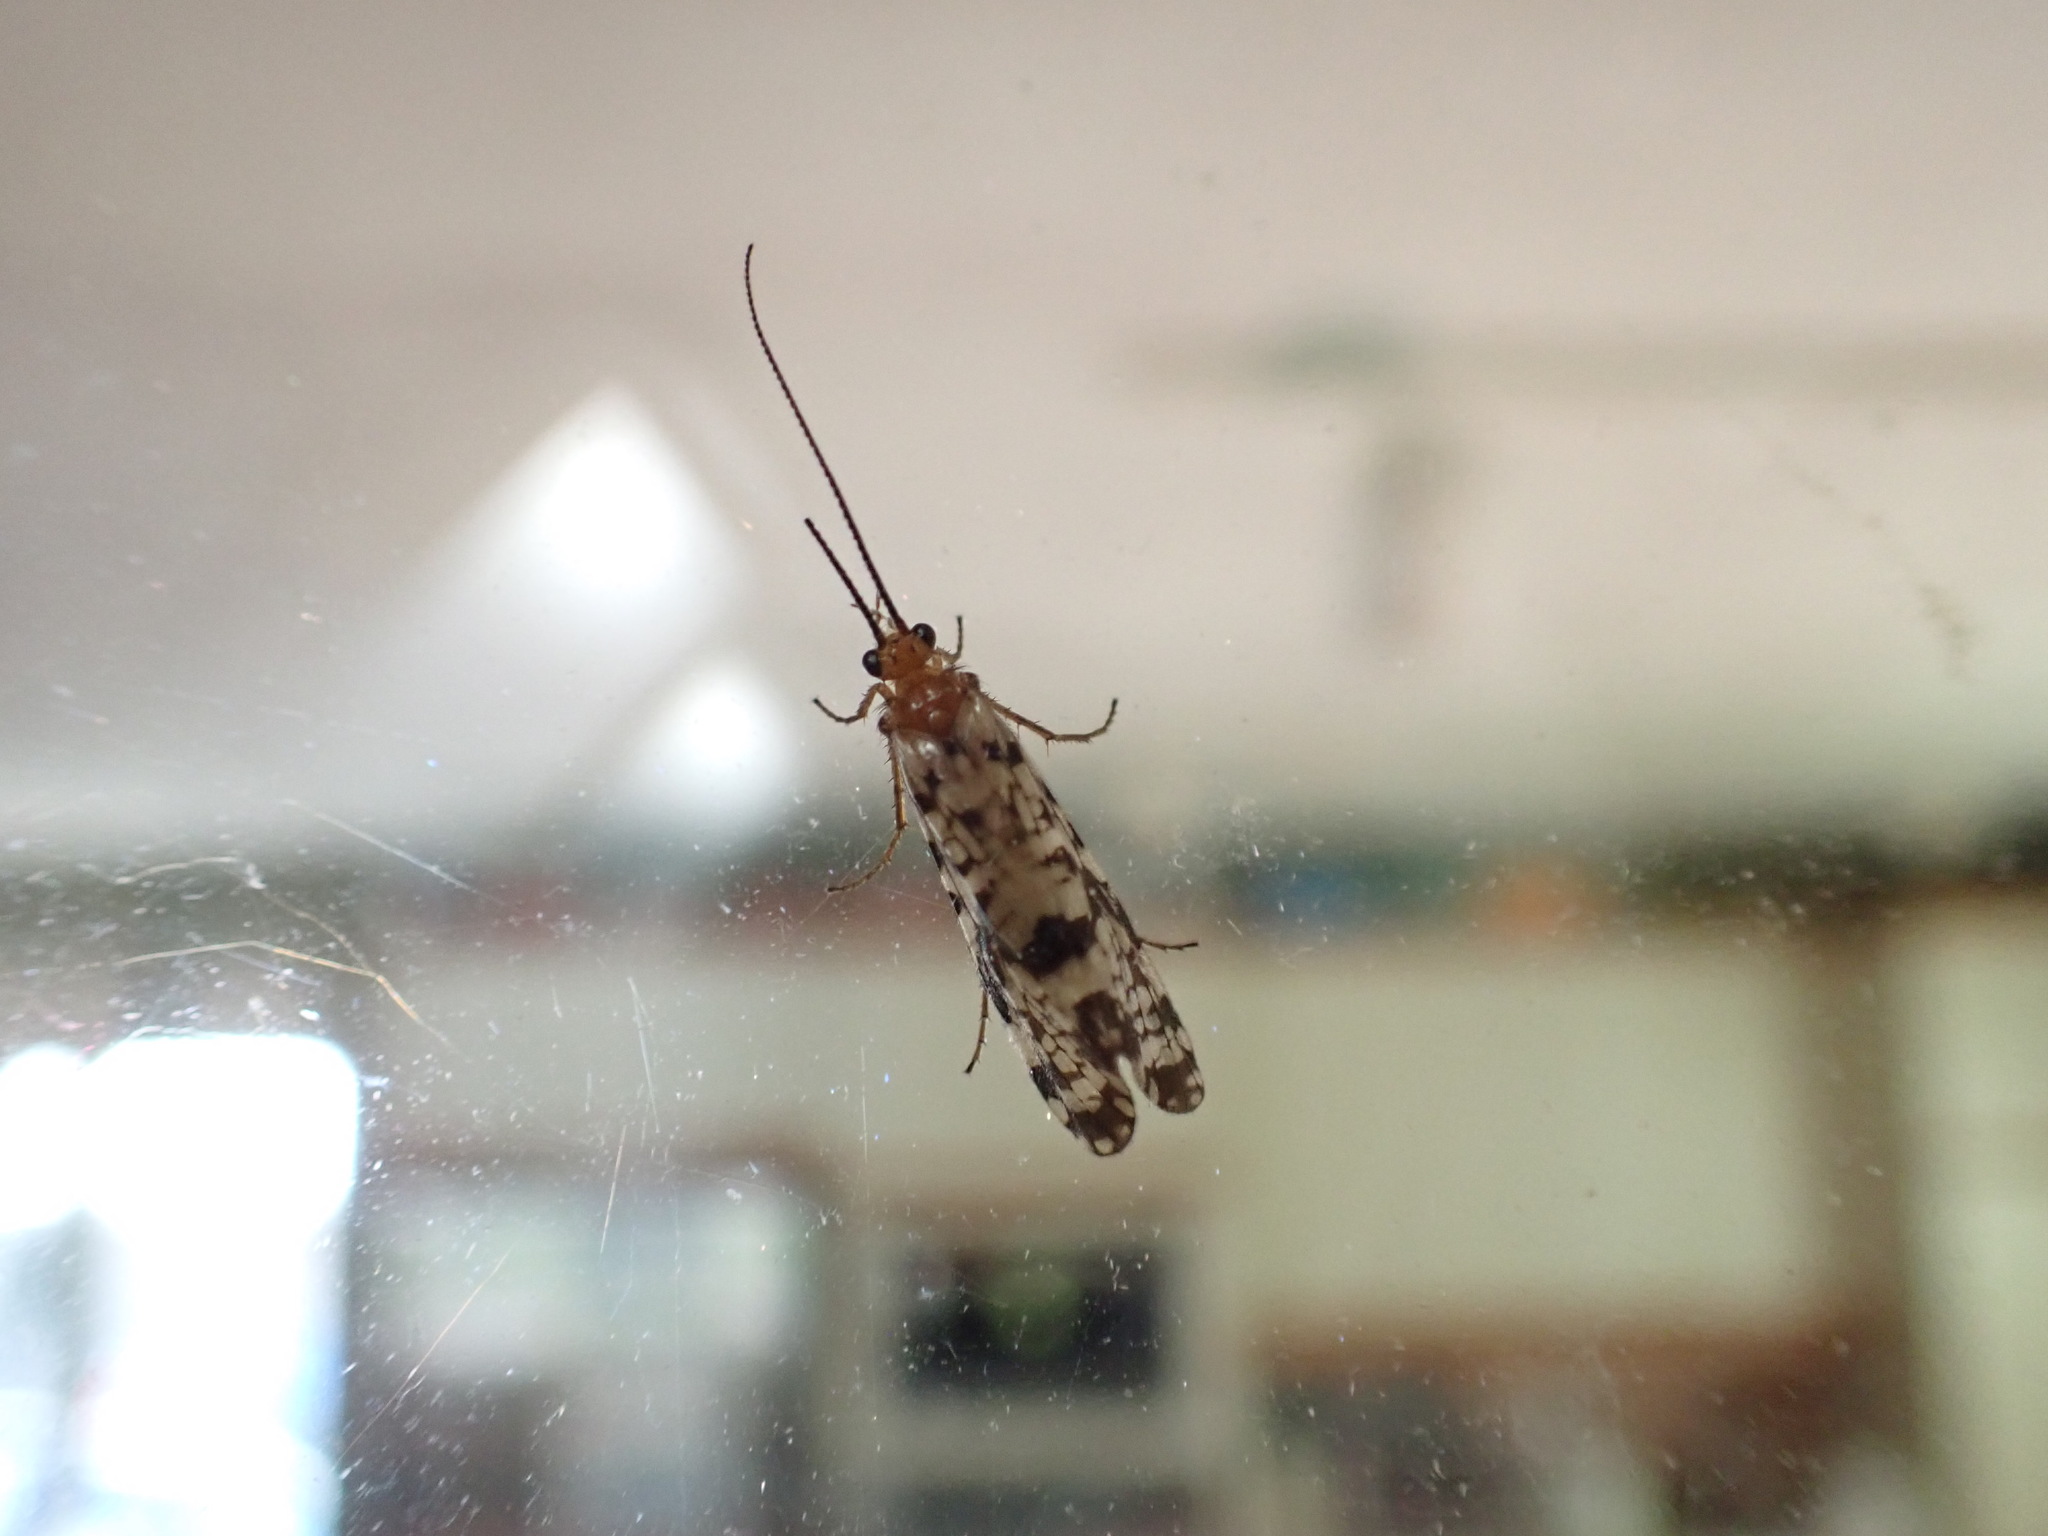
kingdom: Animalia
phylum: Arthropoda
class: Insecta
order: Trichoptera
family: Phryganeidae
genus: Banksiola
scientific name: Banksiola dossuaria
